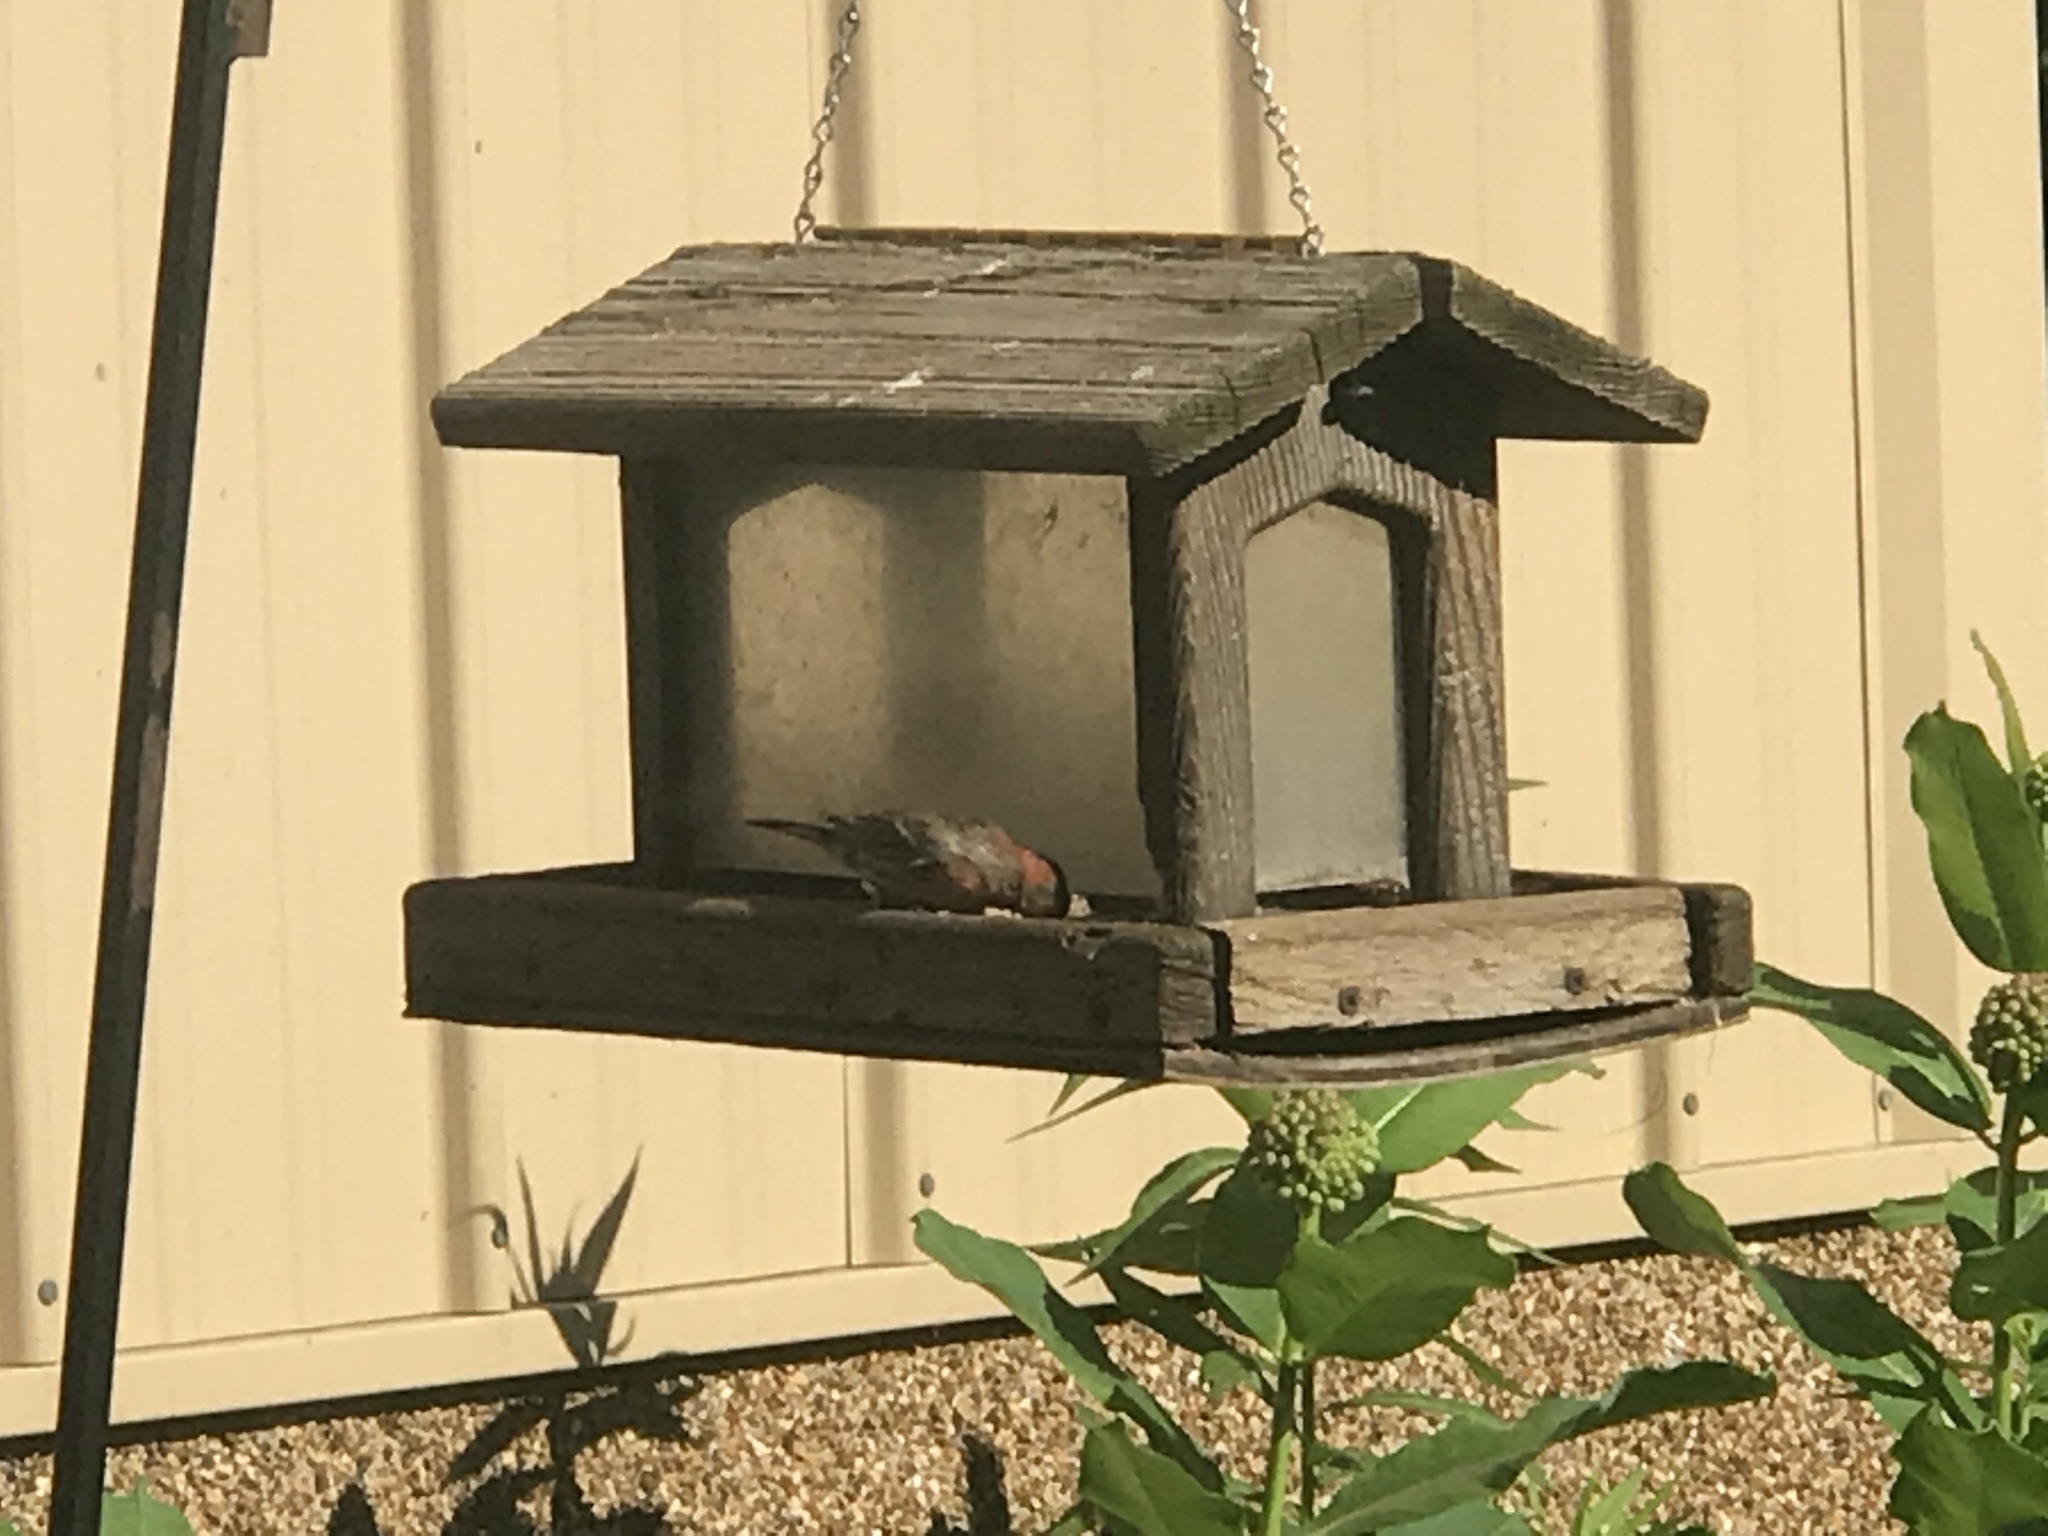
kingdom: Animalia
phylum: Chordata
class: Aves
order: Passeriformes
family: Fringillidae
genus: Haemorhous
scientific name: Haemorhous mexicanus
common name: House finch
